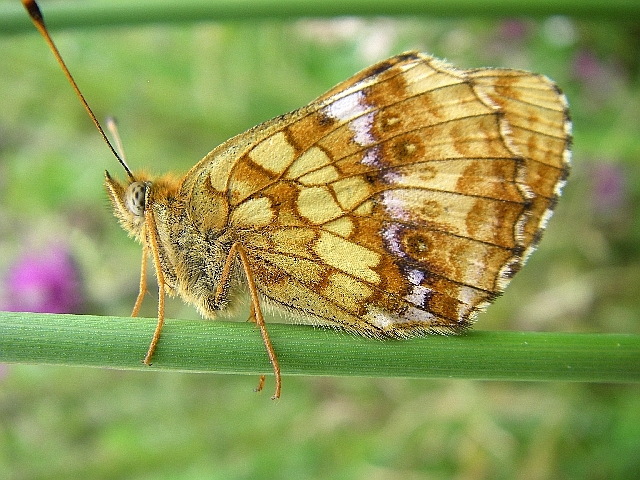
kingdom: Animalia
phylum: Arthropoda
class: Insecta
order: Lepidoptera
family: Nymphalidae
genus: Brenthis
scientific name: Brenthis ino
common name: Lesser marbled fritillary
